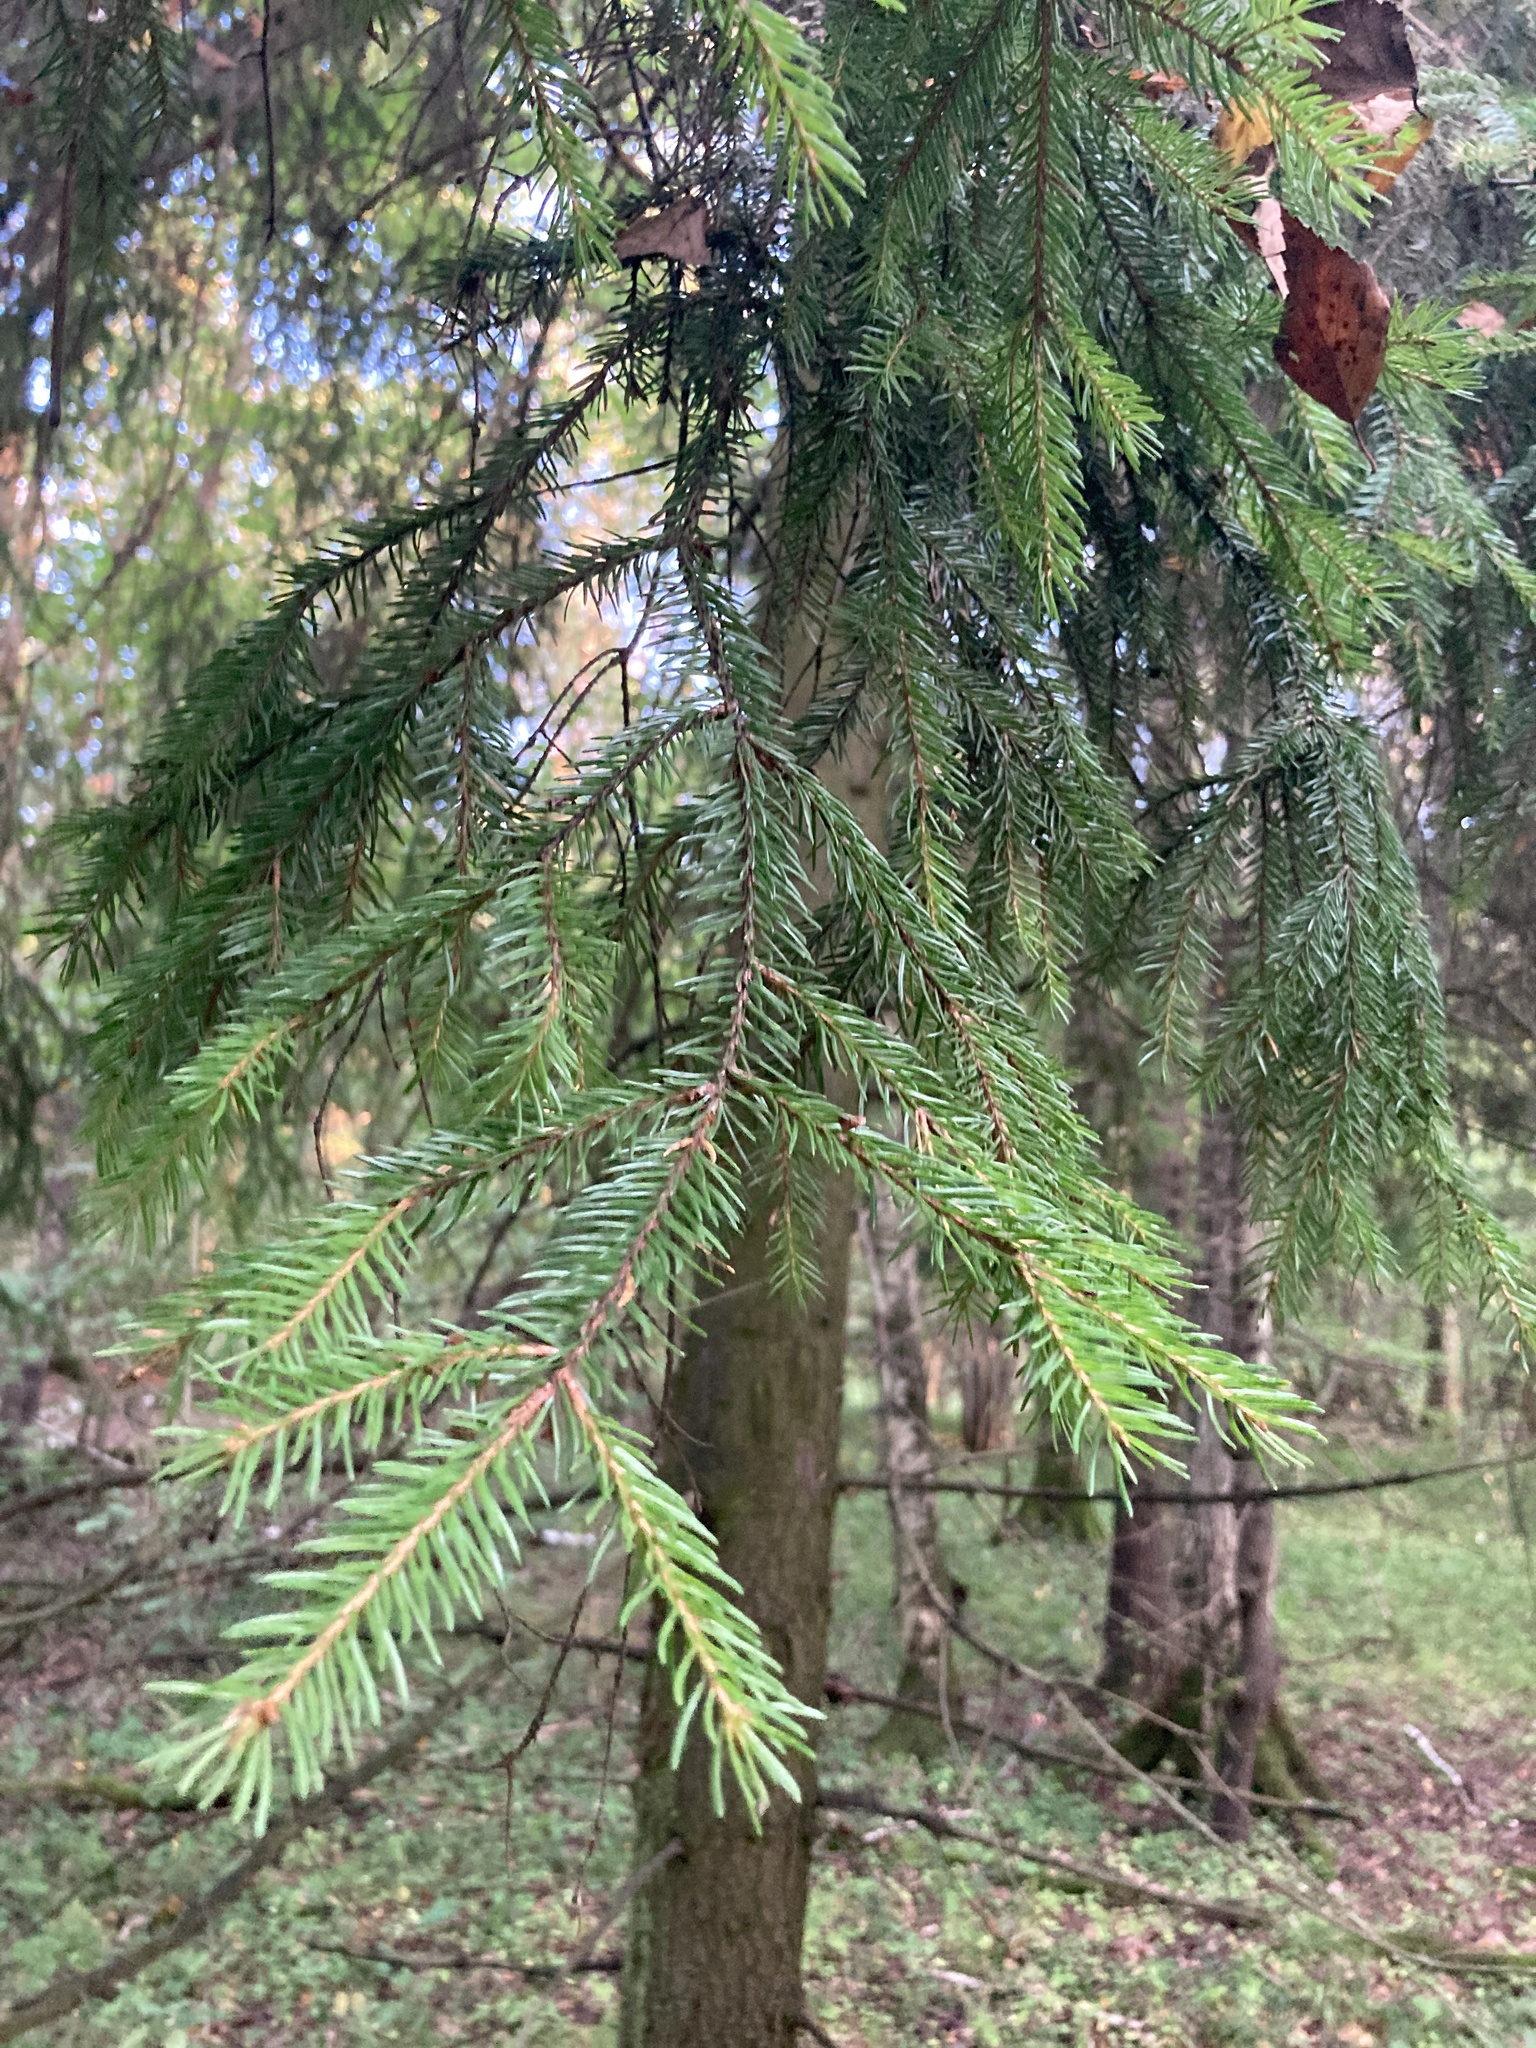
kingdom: Plantae
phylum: Tracheophyta
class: Pinopsida
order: Pinales
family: Pinaceae
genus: Picea
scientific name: Picea abies
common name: Norway spruce
